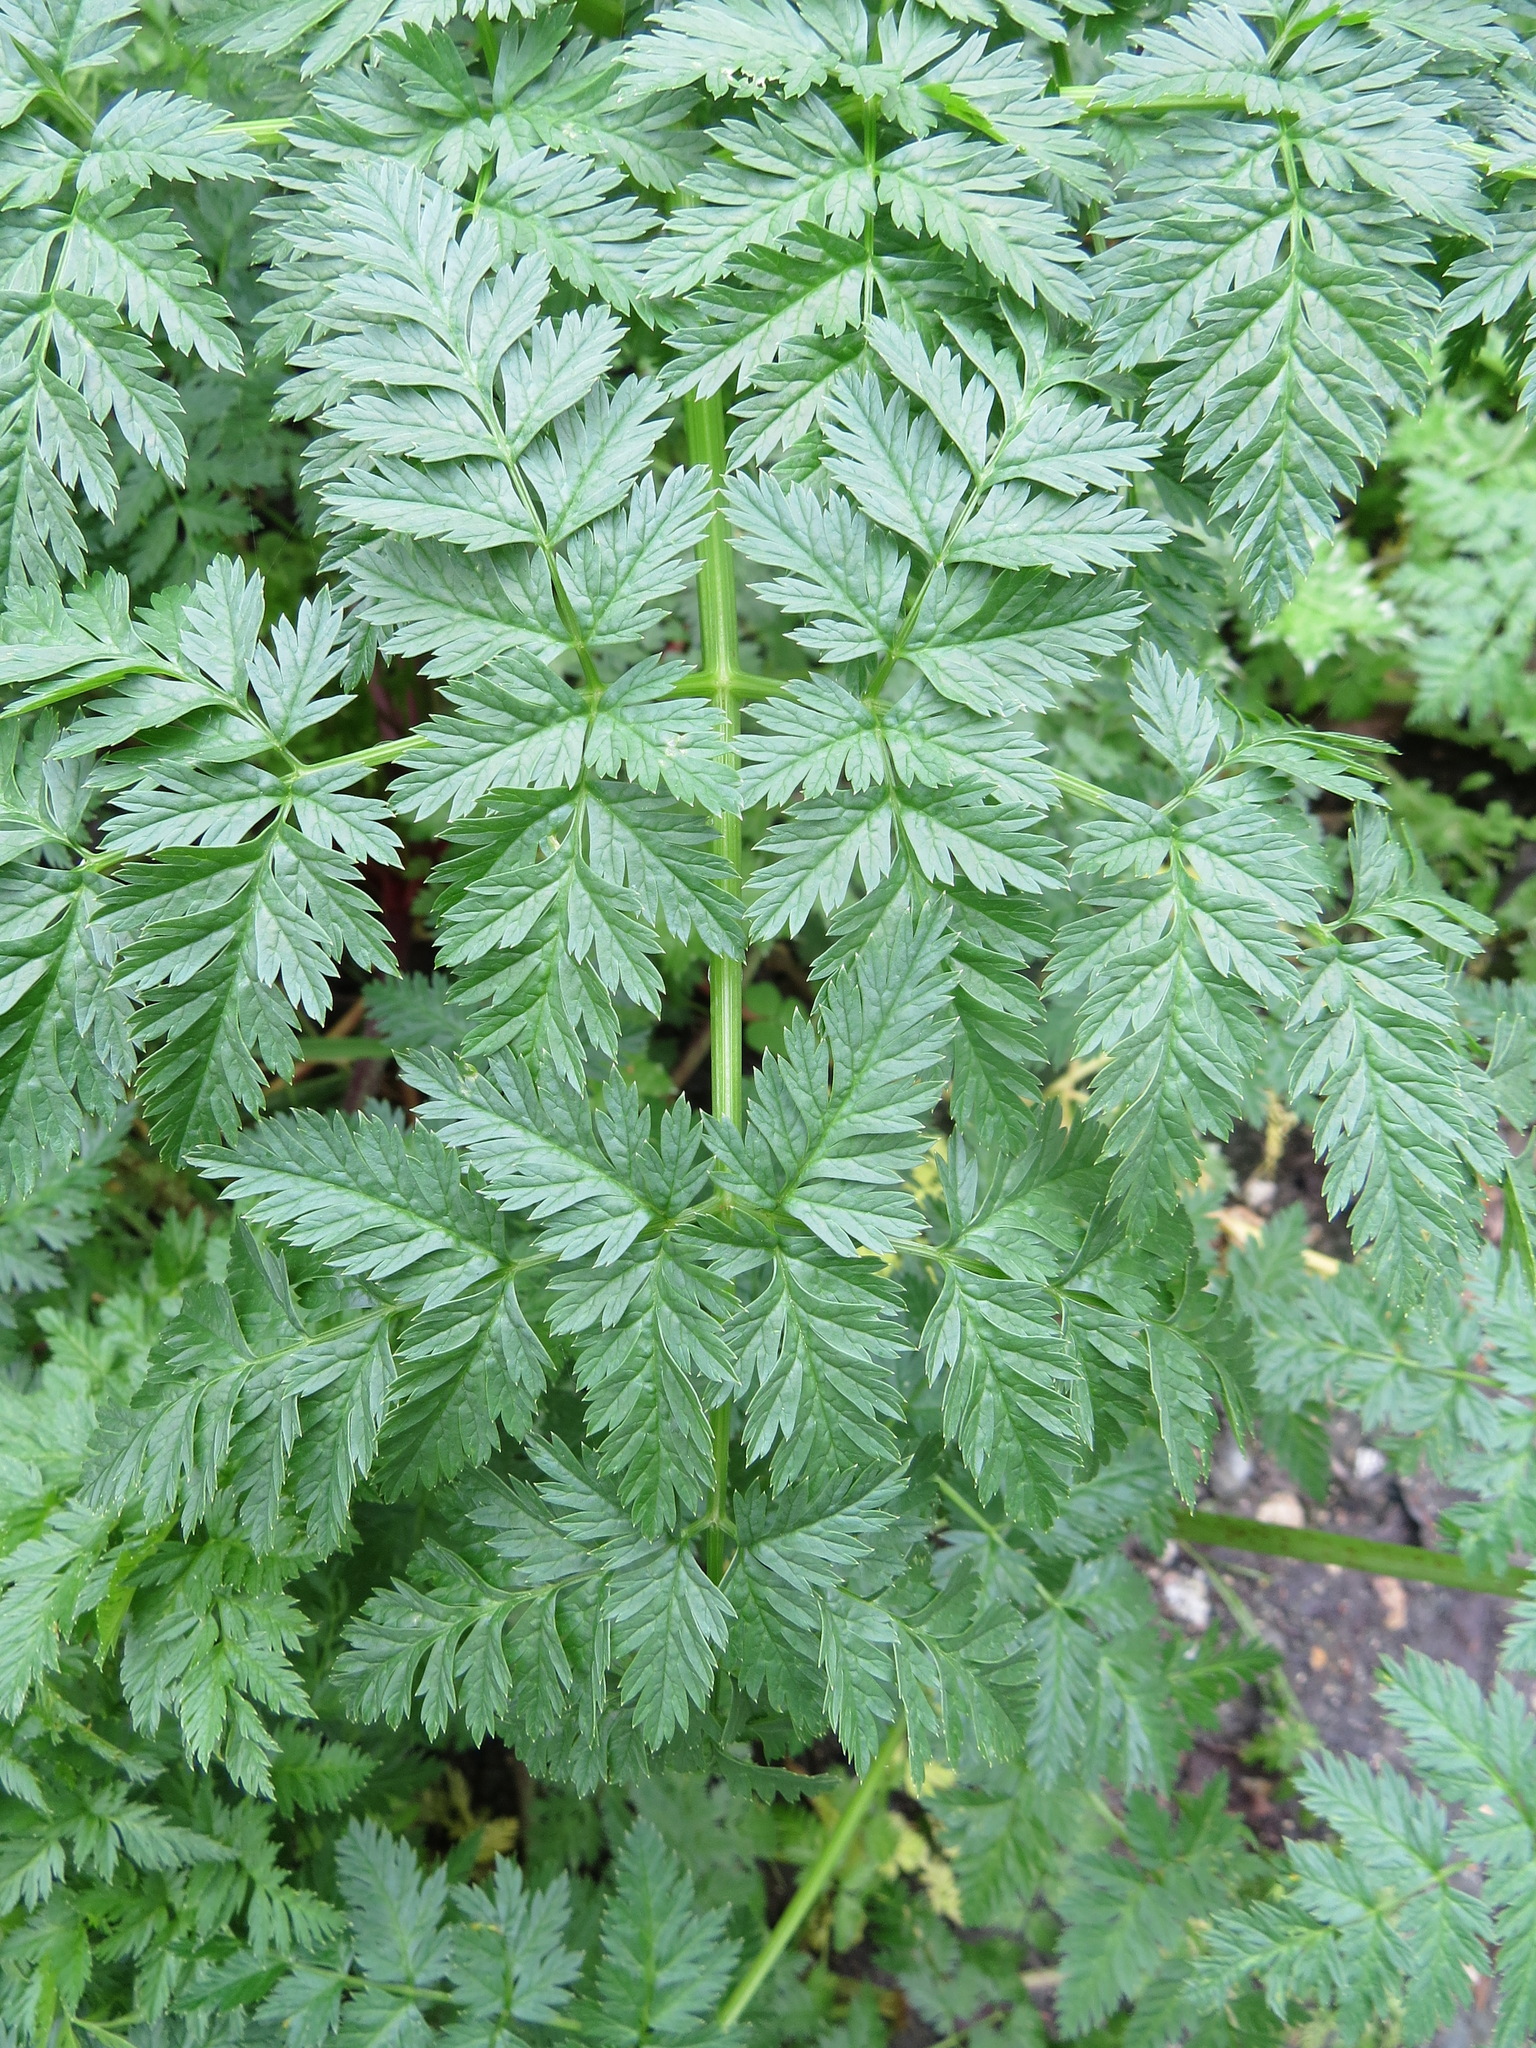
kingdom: Plantae
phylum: Tracheophyta
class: Magnoliopsida
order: Apiales
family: Apiaceae
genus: Conium
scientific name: Conium maculatum
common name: Hemlock
